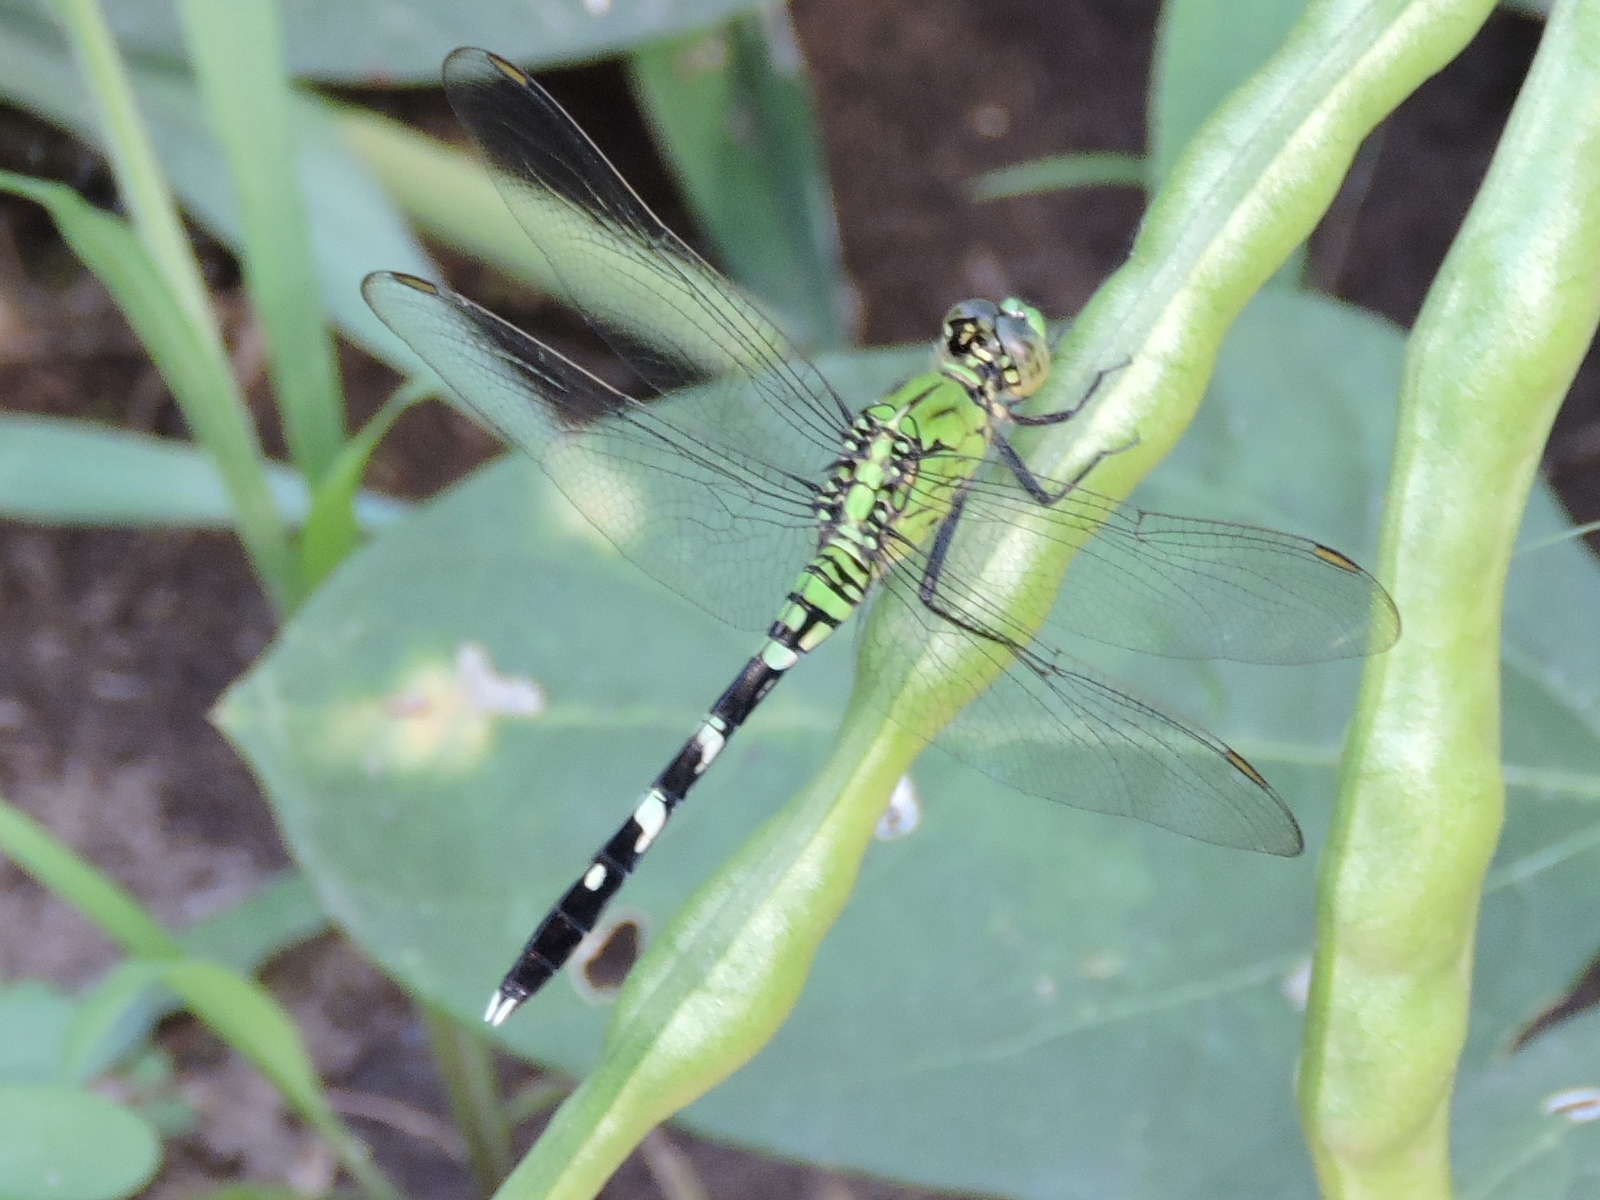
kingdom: Animalia
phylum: Arthropoda
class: Insecta
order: Odonata
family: Libellulidae
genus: Erythemis
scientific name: Erythemis simplicicollis
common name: Eastern pondhawk
